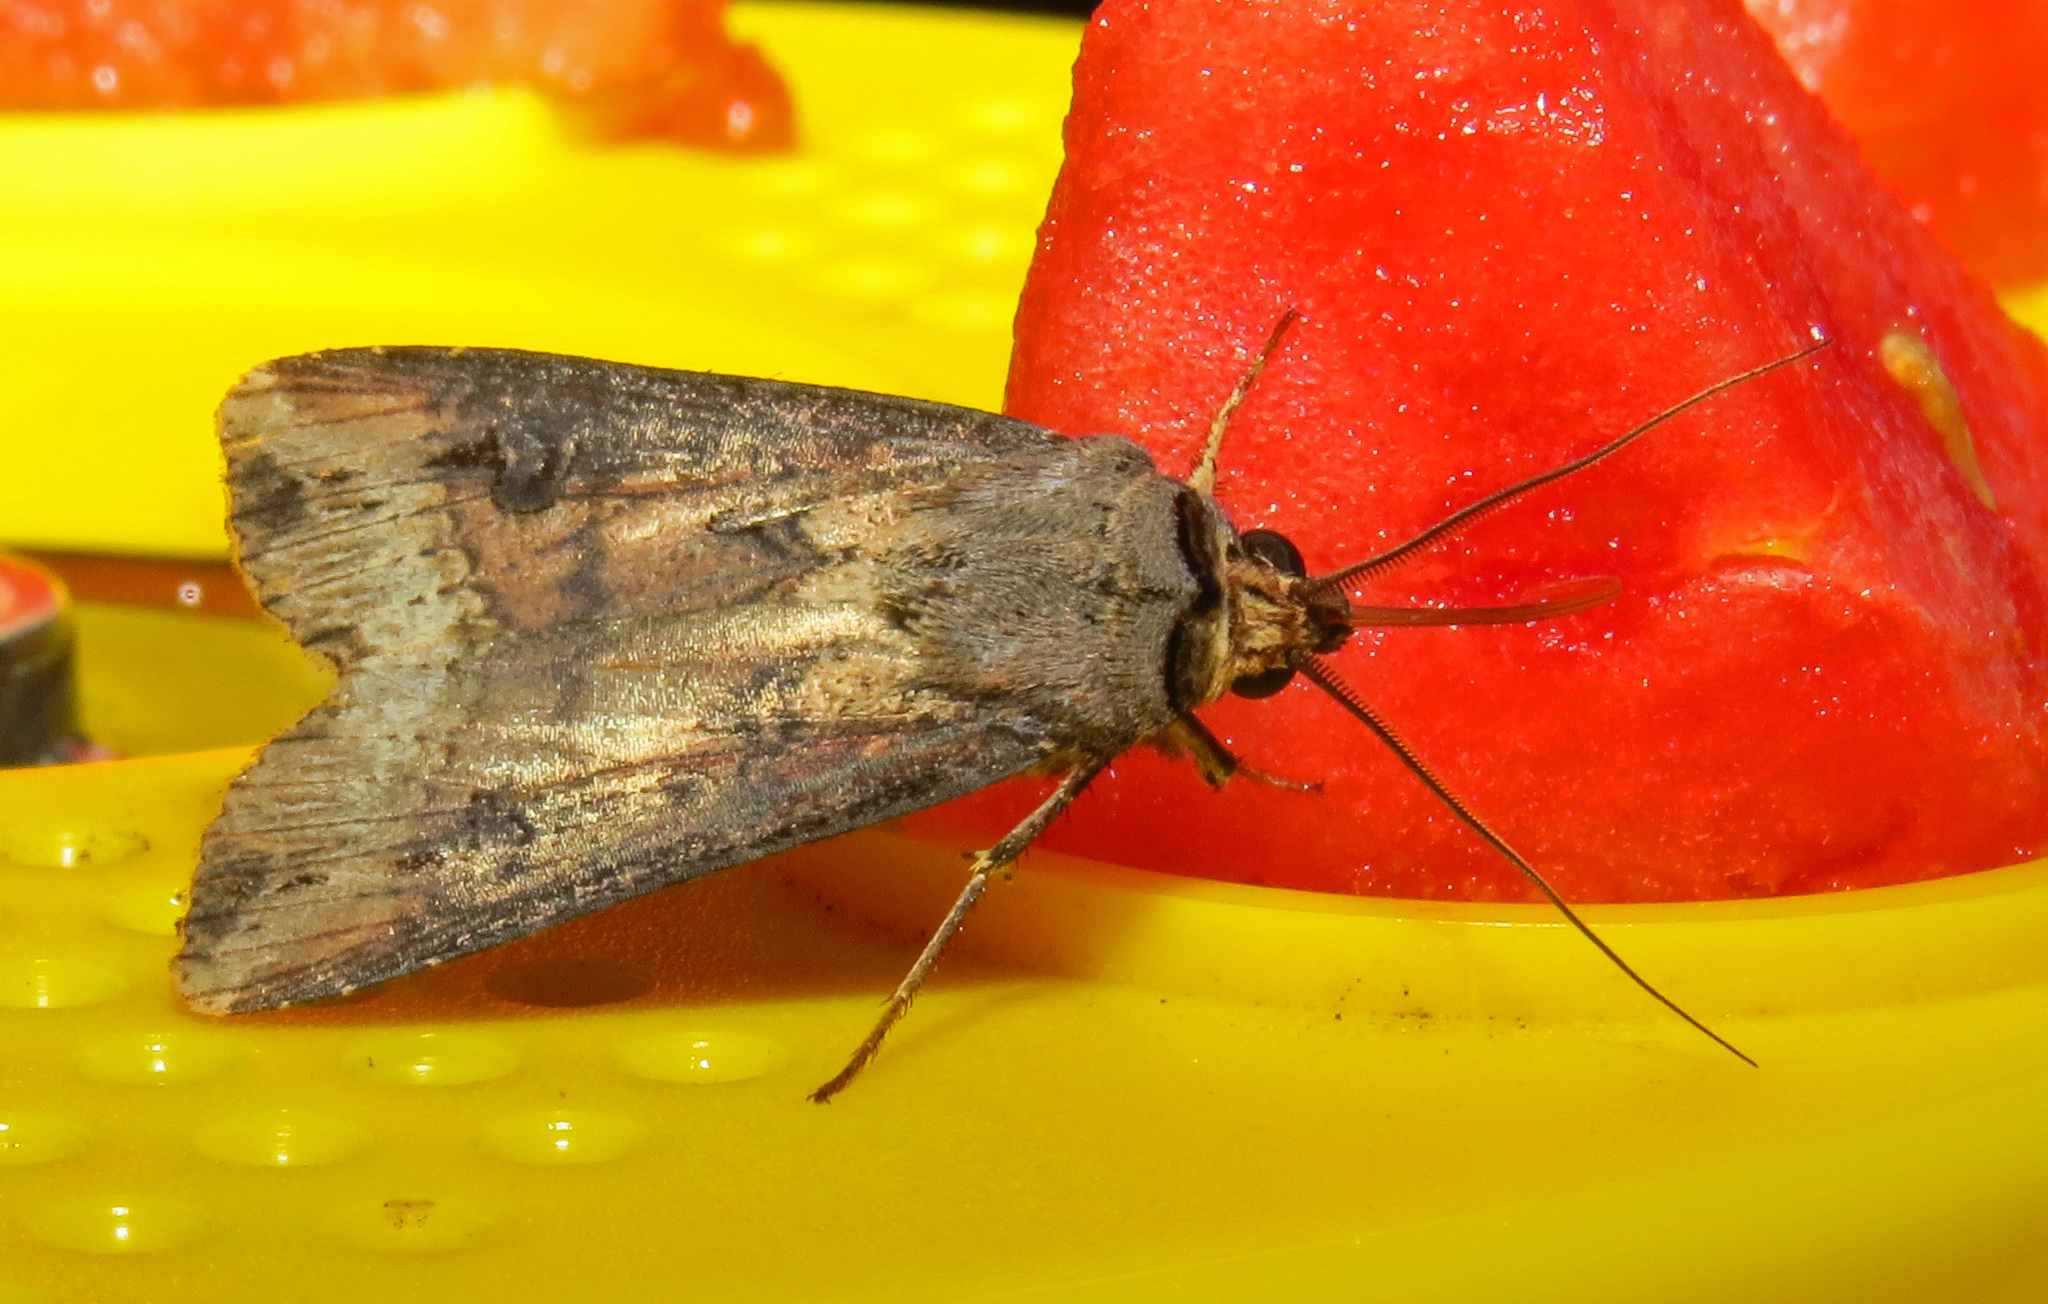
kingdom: Animalia
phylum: Arthropoda
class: Insecta
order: Lepidoptera
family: Noctuidae
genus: Agrotis
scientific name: Agrotis ipsilon
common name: Dark sword-grass
